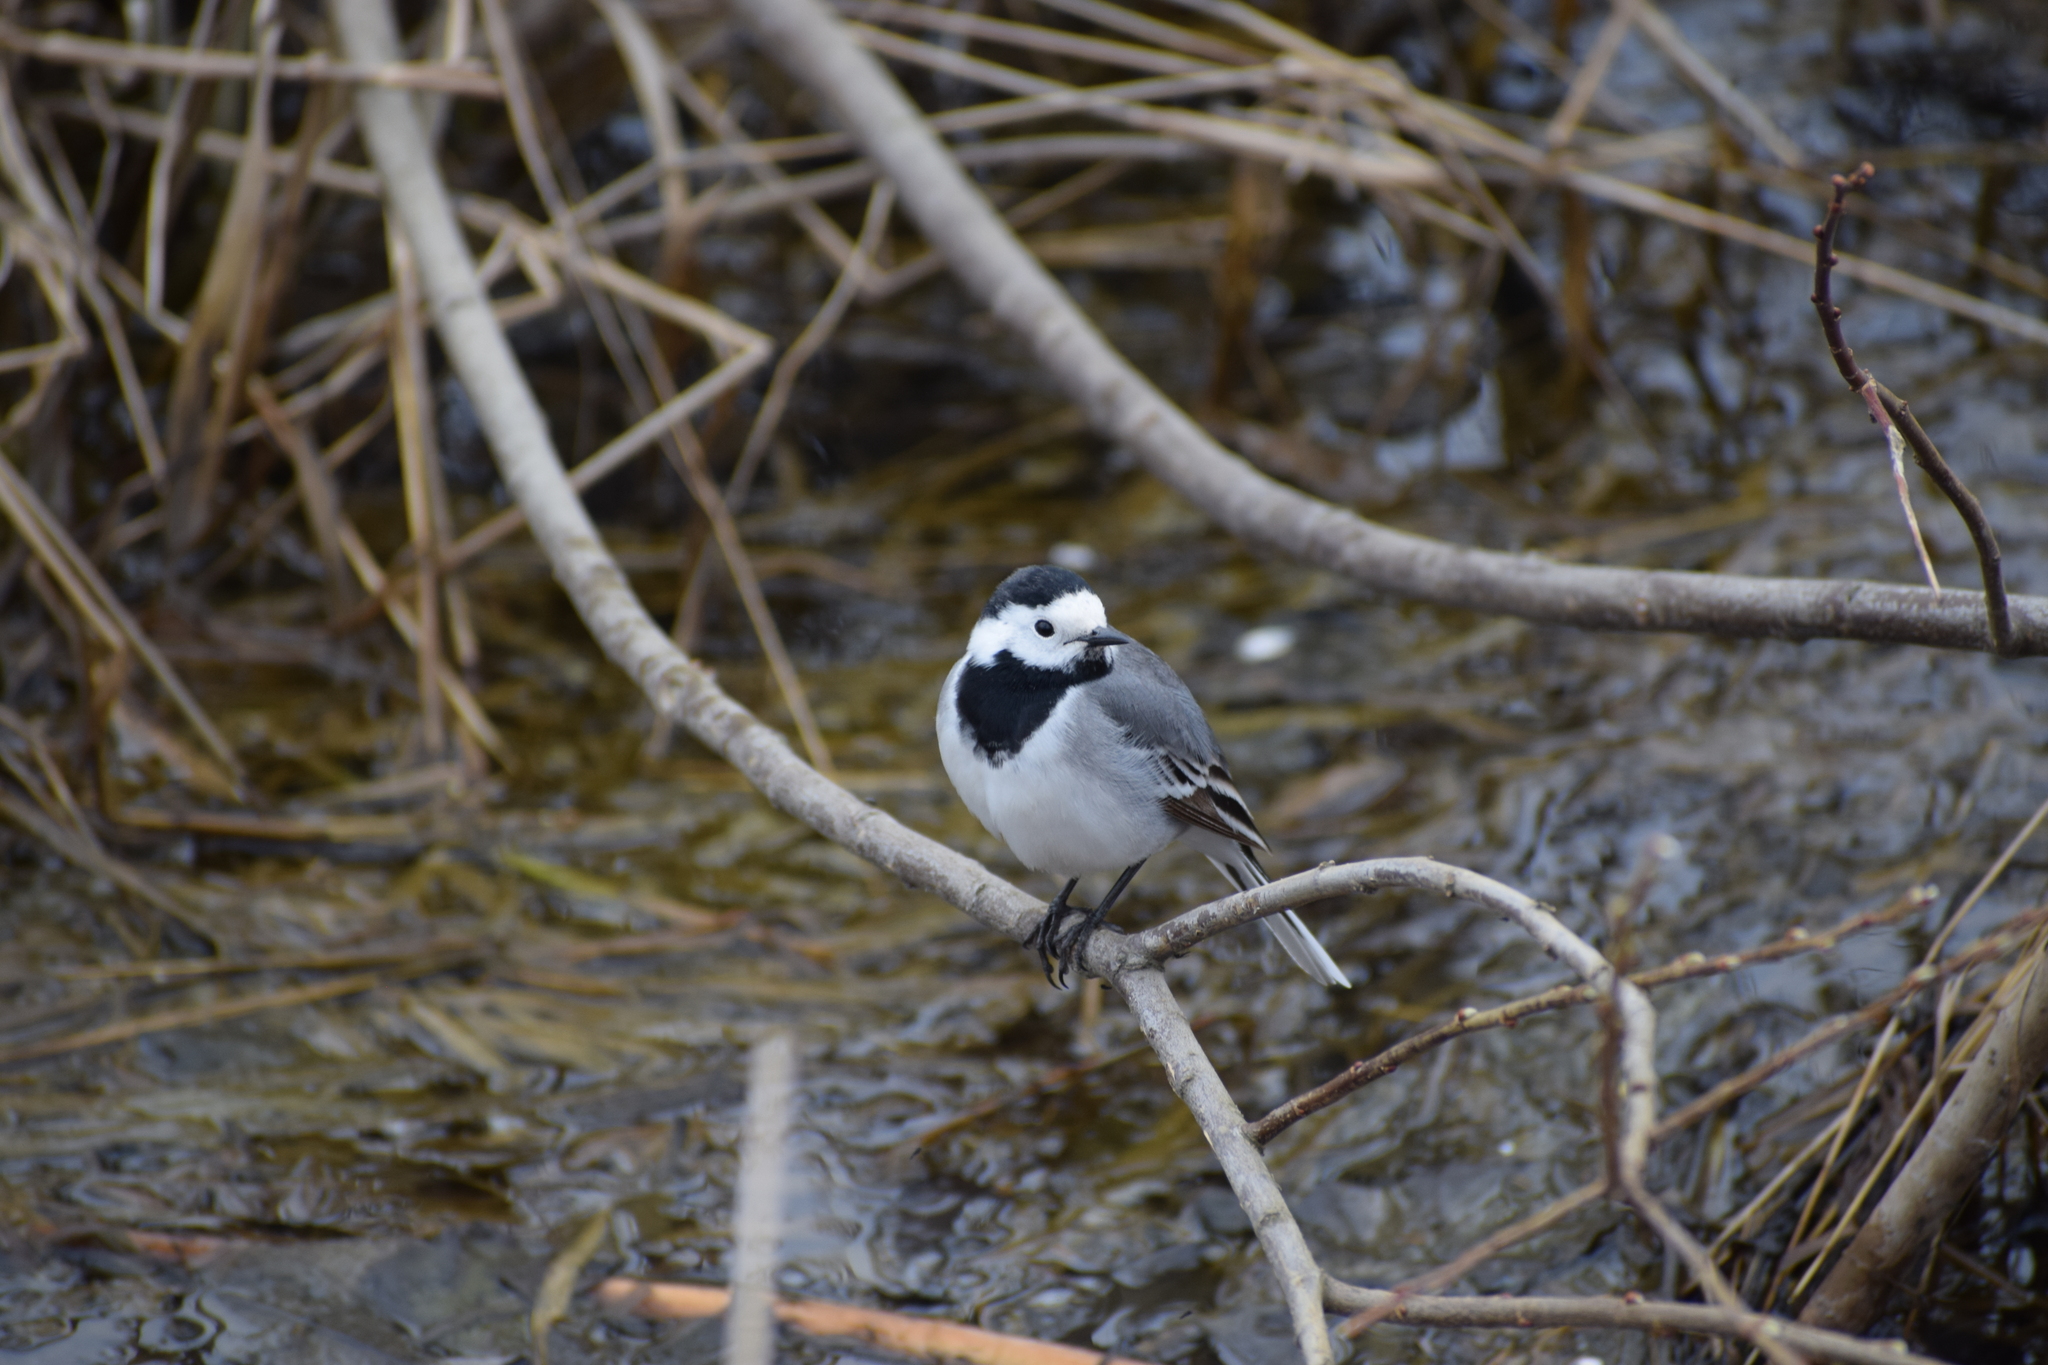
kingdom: Animalia
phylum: Chordata
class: Aves
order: Passeriformes
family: Motacillidae
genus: Motacilla
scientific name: Motacilla alba
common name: White wagtail
